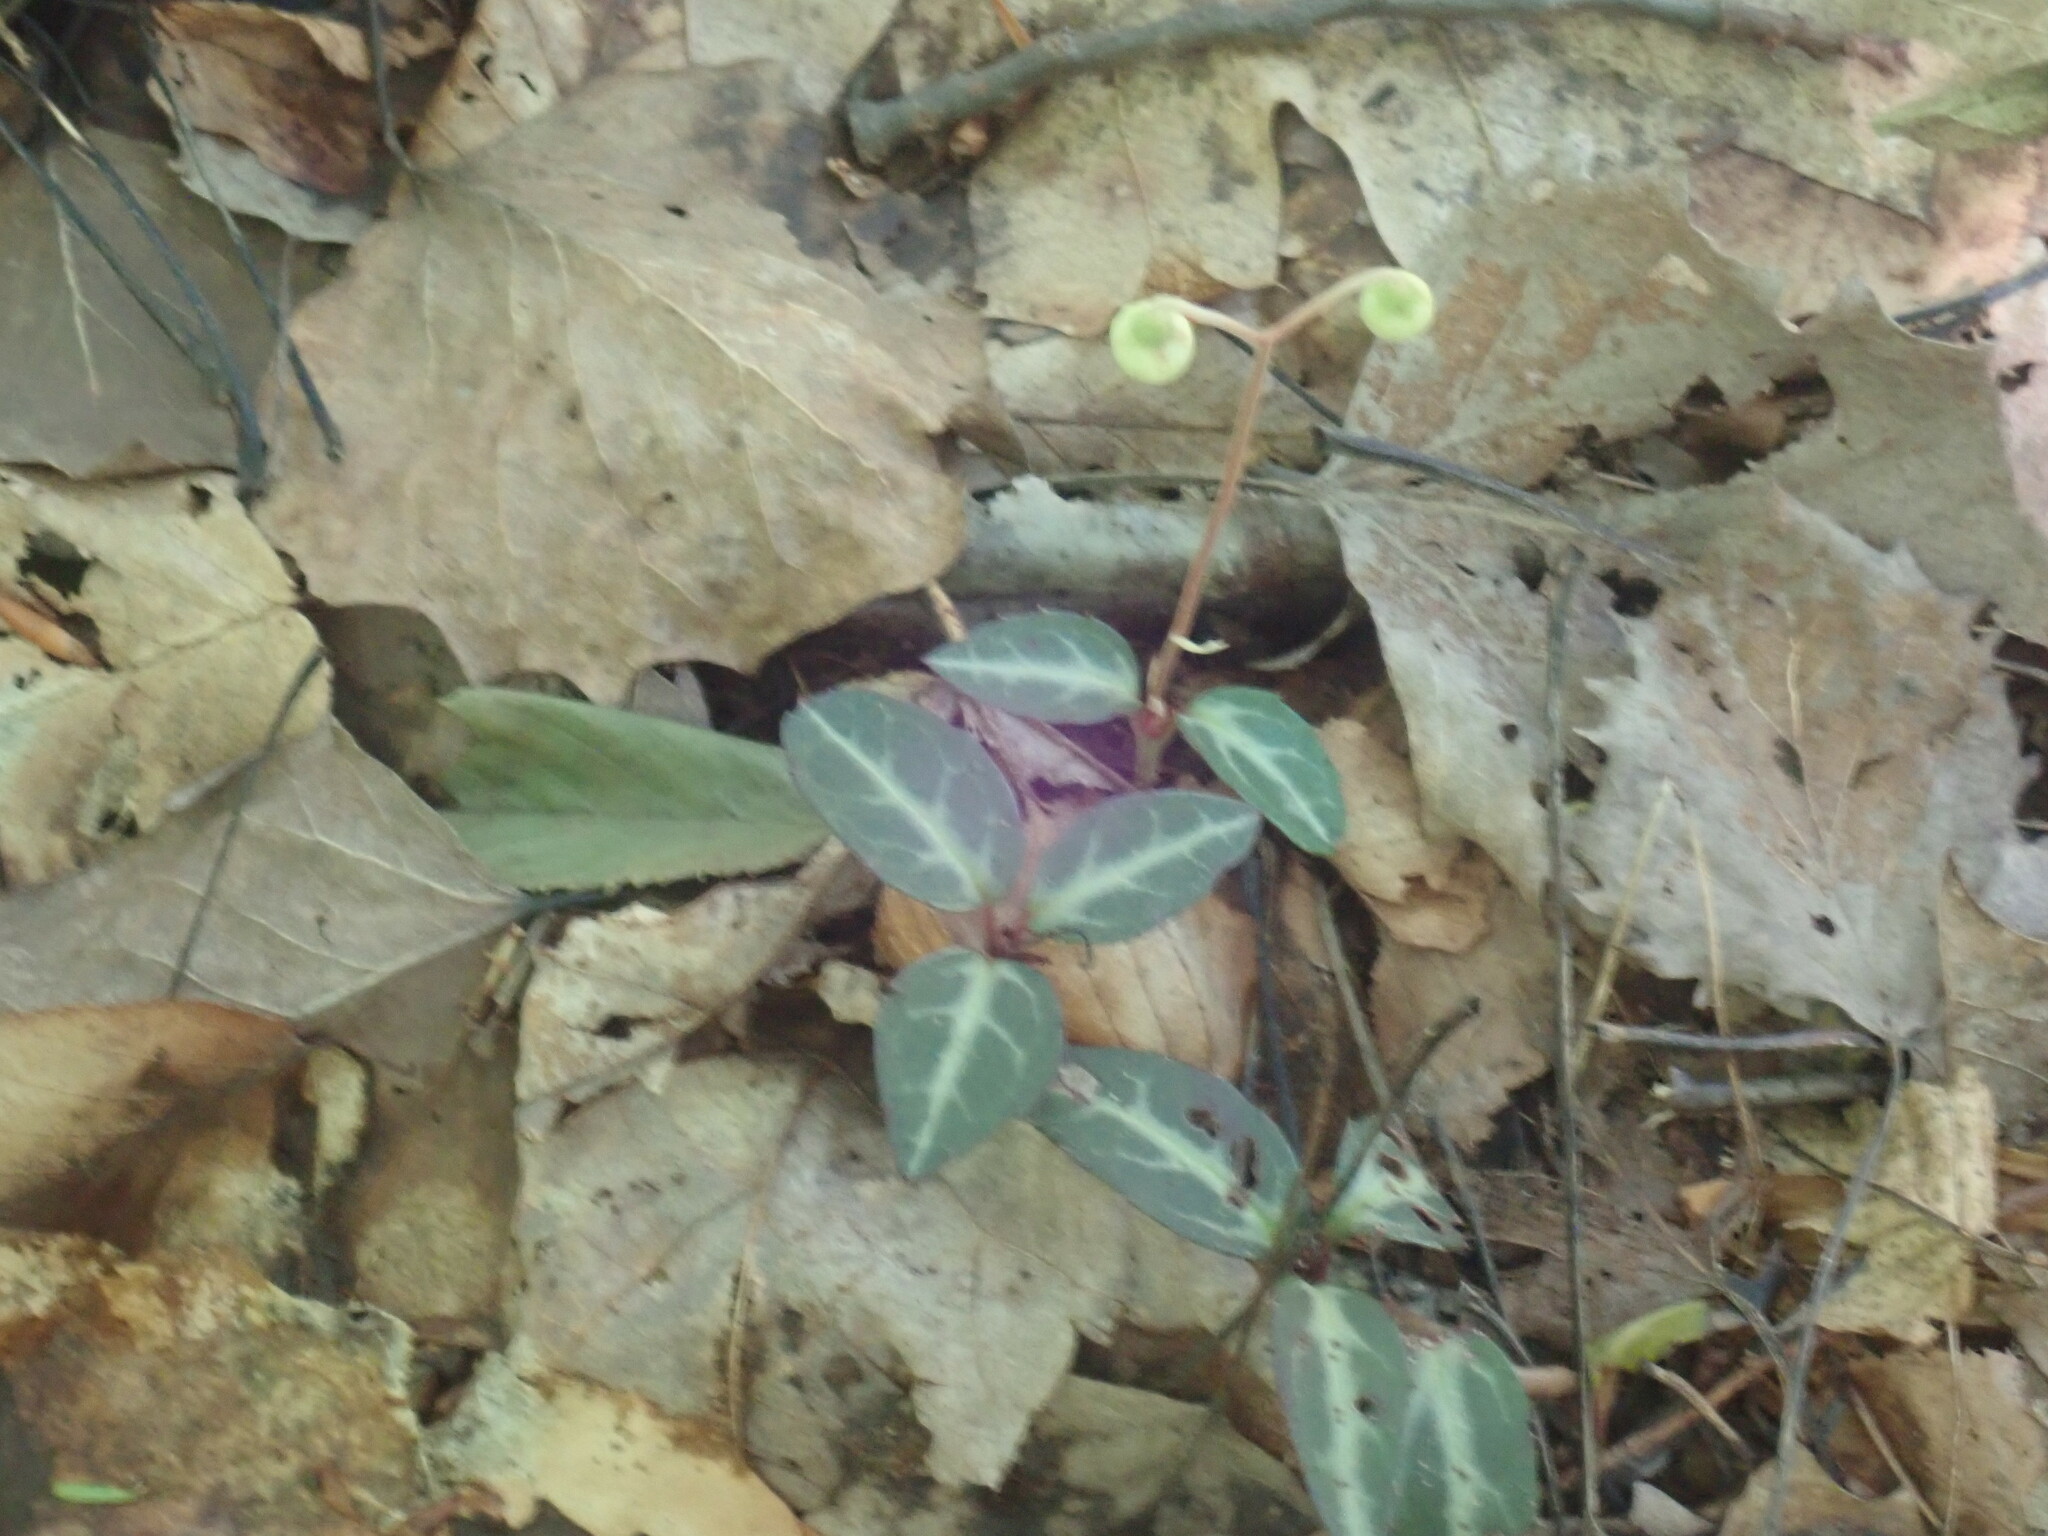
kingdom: Plantae
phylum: Tracheophyta
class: Magnoliopsida
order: Ericales
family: Ericaceae
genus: Chimaphila
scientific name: Chimaphila maculata
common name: Spotted pipsissewa
